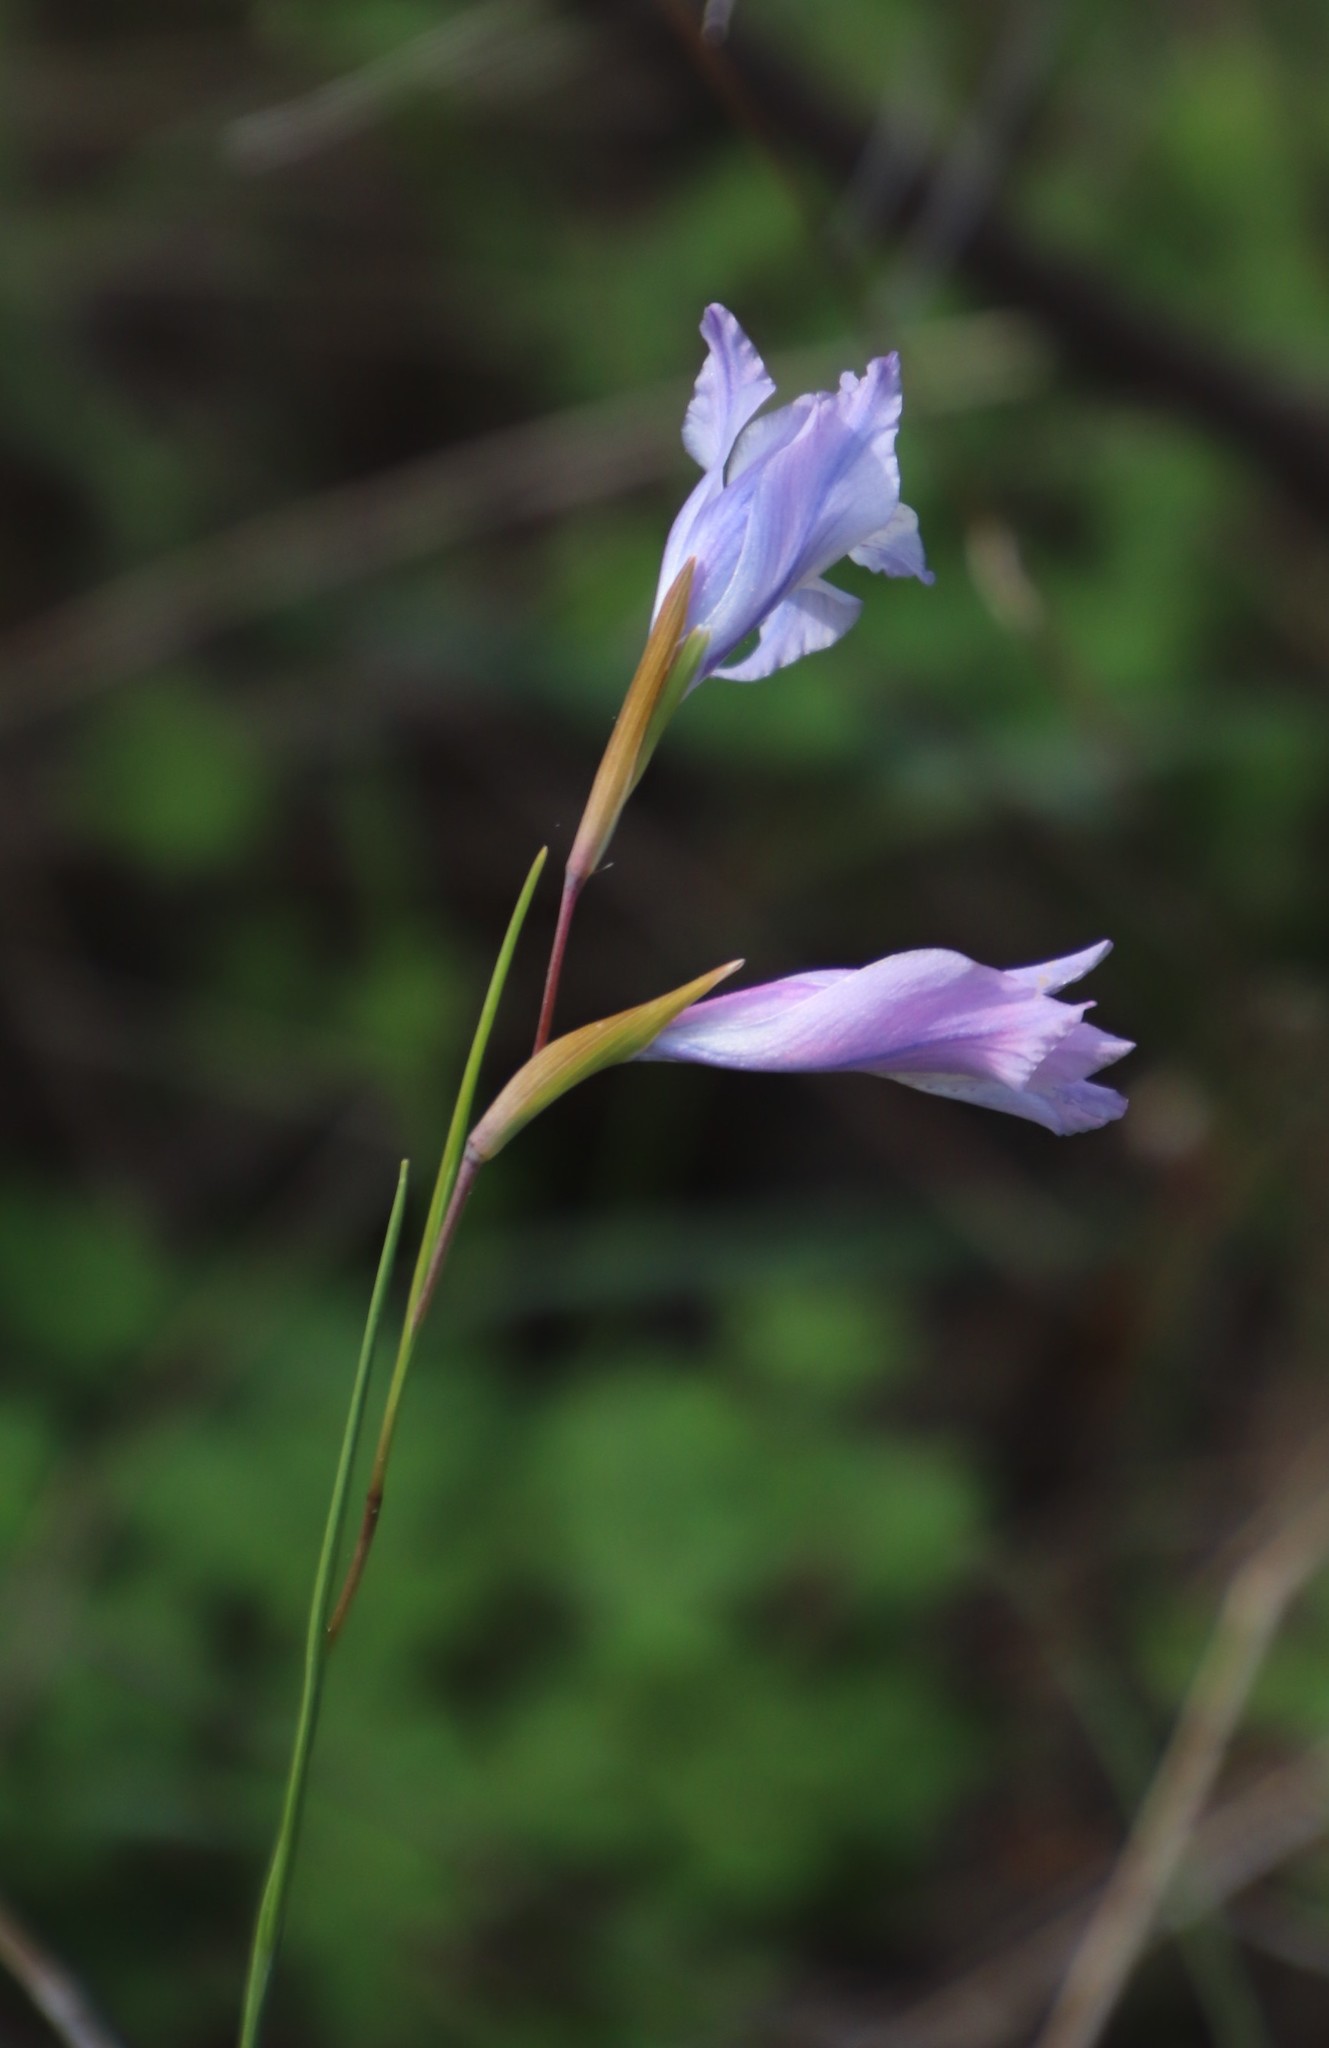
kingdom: Plantae
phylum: Tracheophyta
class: Liliopsida
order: Asparagales
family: Iridaceae
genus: Gladiolus
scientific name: Gladiolus gracilis
